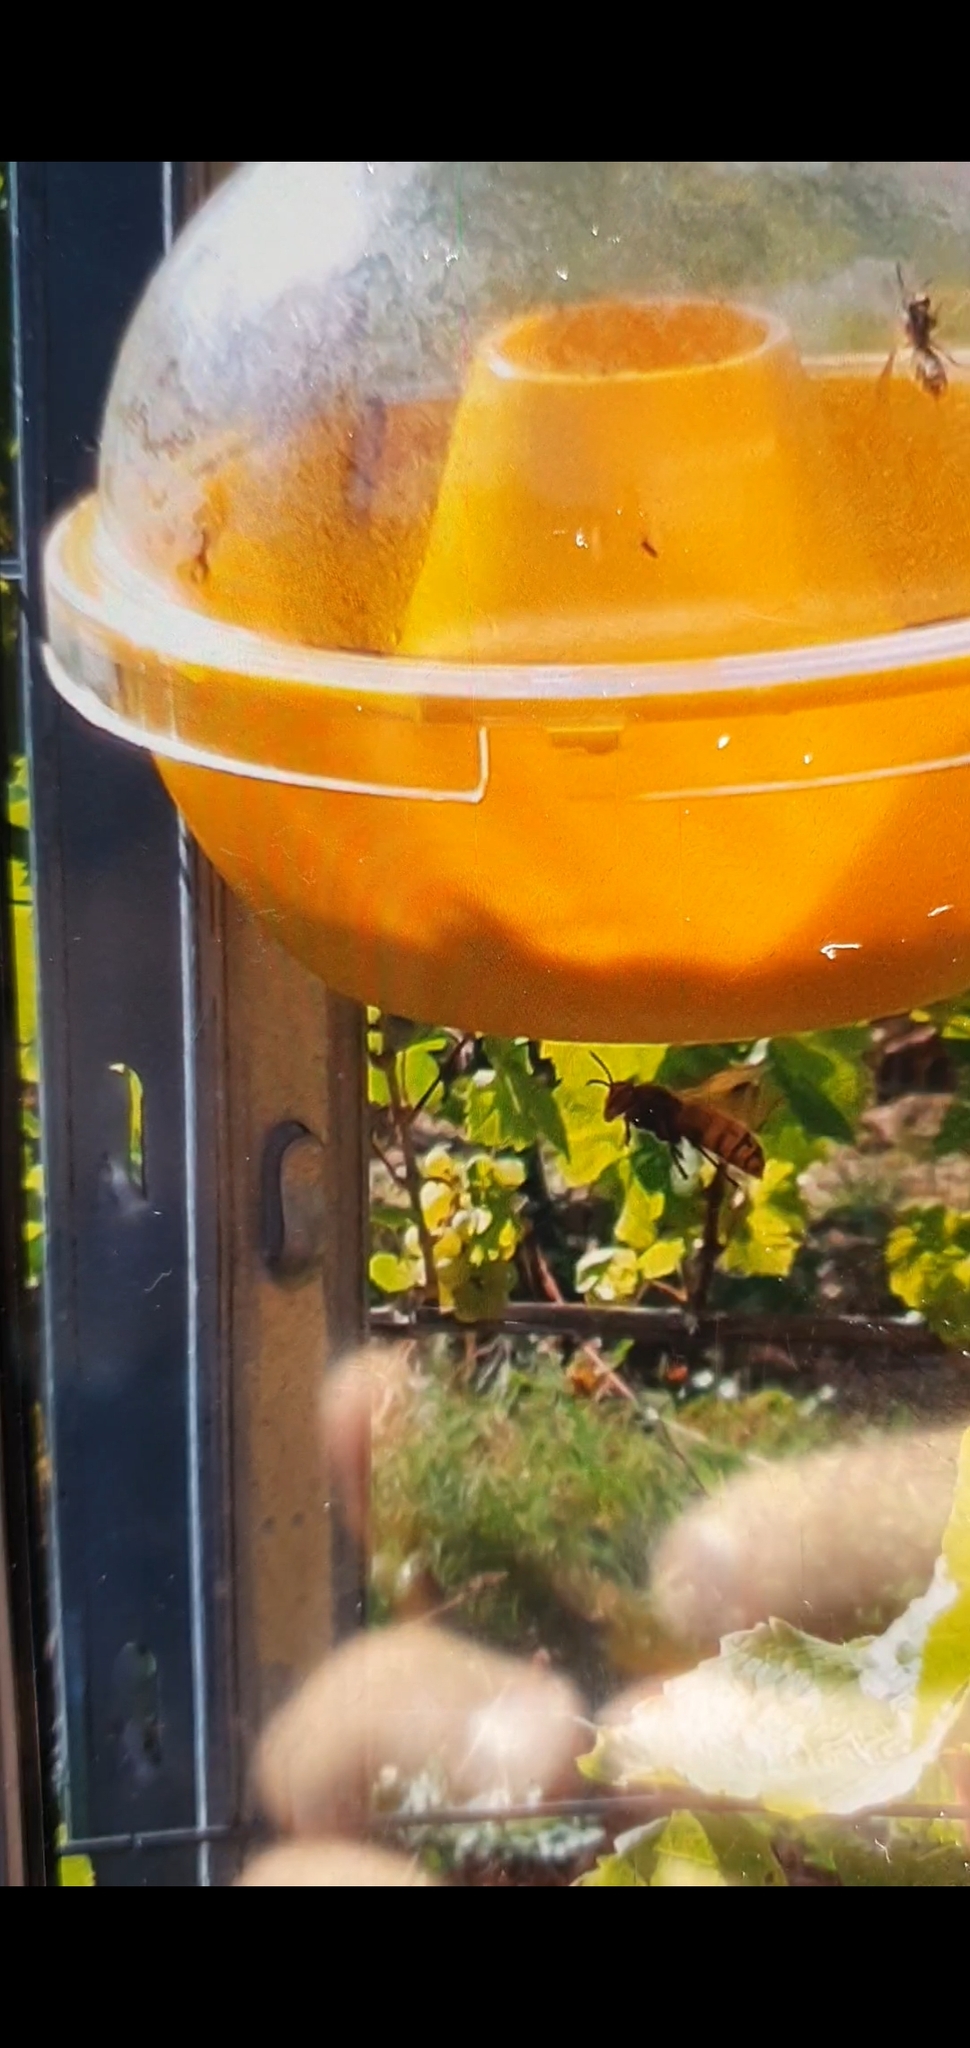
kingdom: Animalia
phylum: Arthropoda
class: Insecta
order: Hymenoptera
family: Vespidae
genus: Vespa
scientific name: Vespa crabro
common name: Hornet
